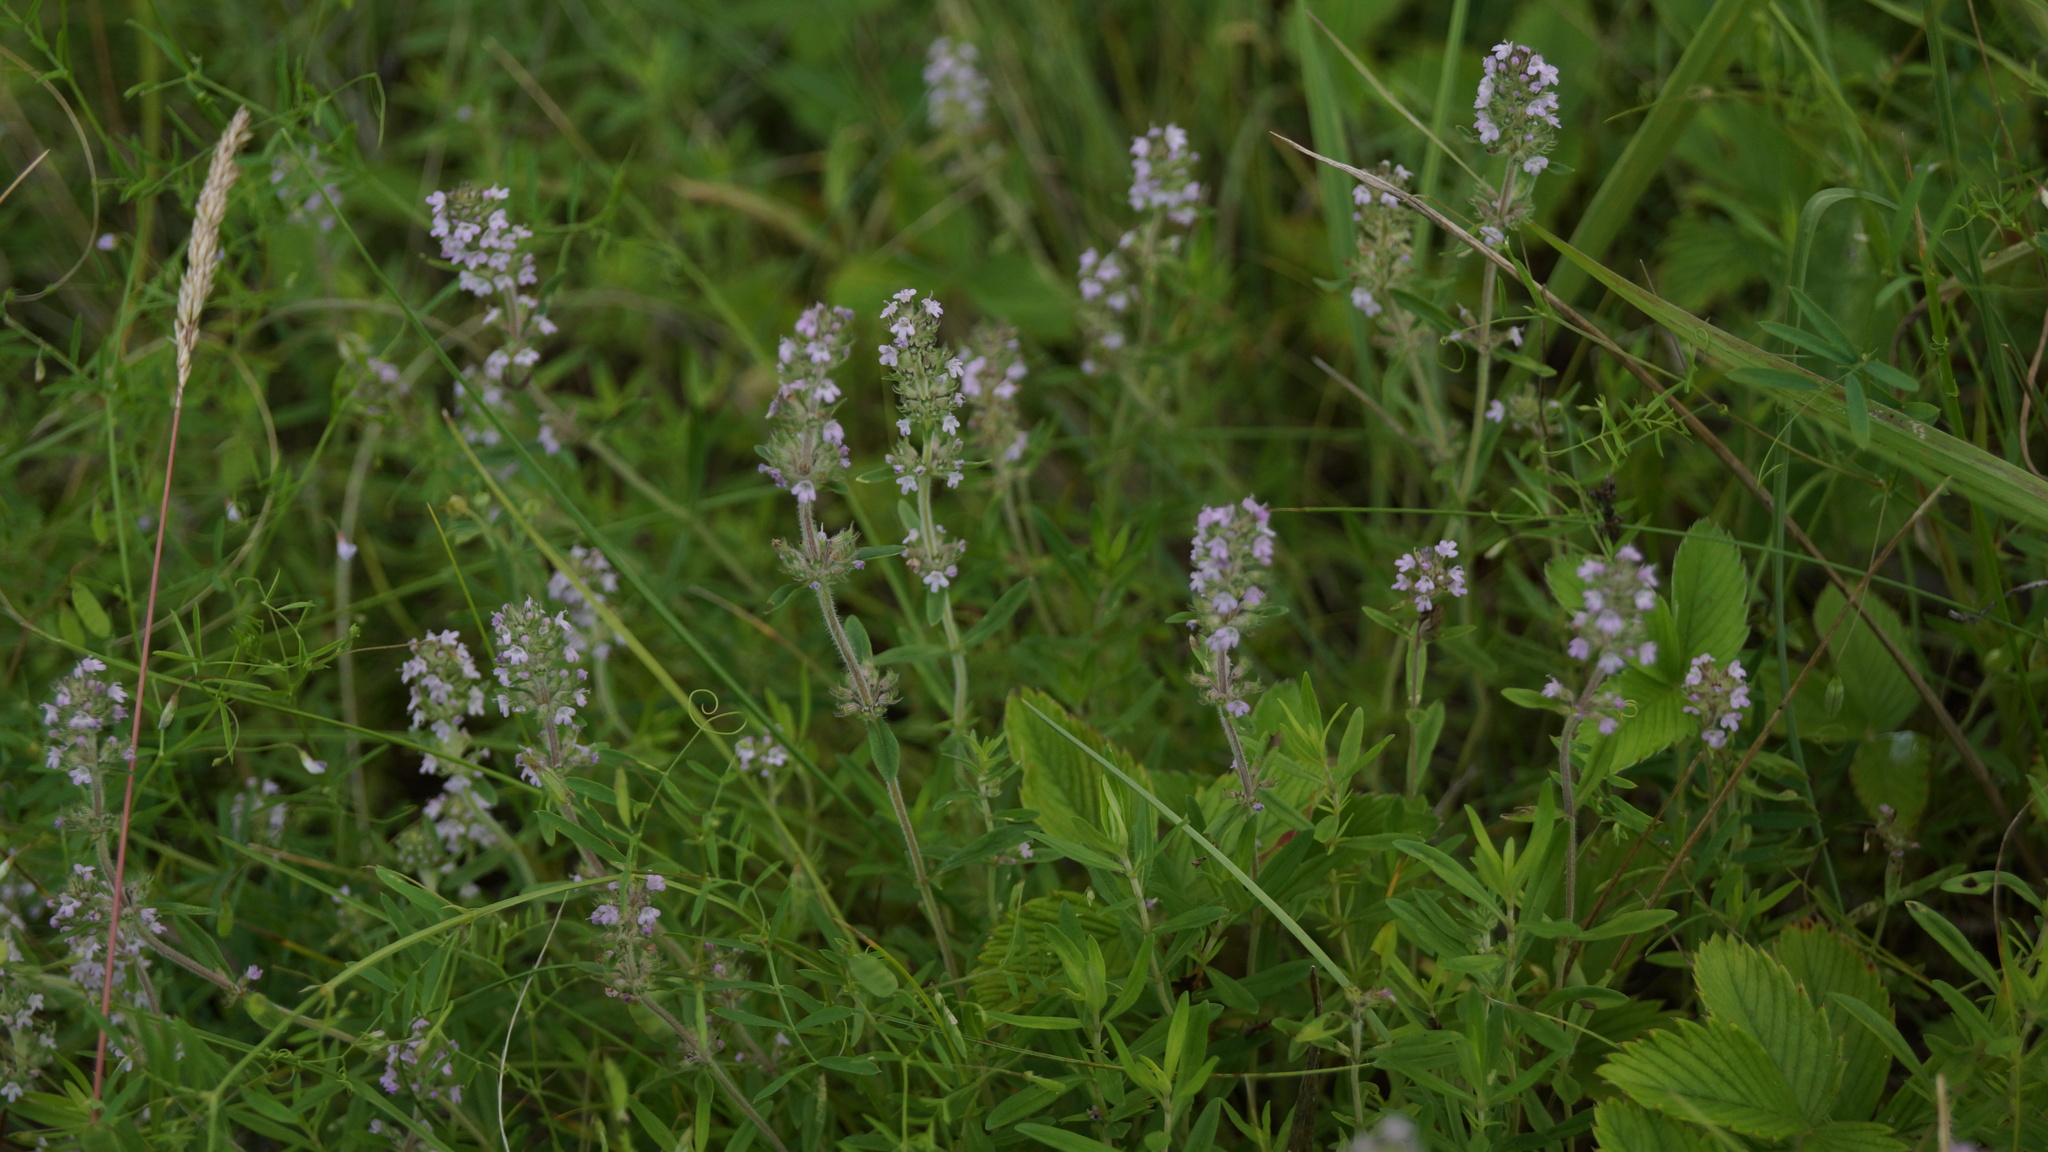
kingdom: Plantae
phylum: Tracheophyta
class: Magnoliopsida
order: Lamiales
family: Lamiaceae
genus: Thymus
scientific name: Thymus pannonicus
